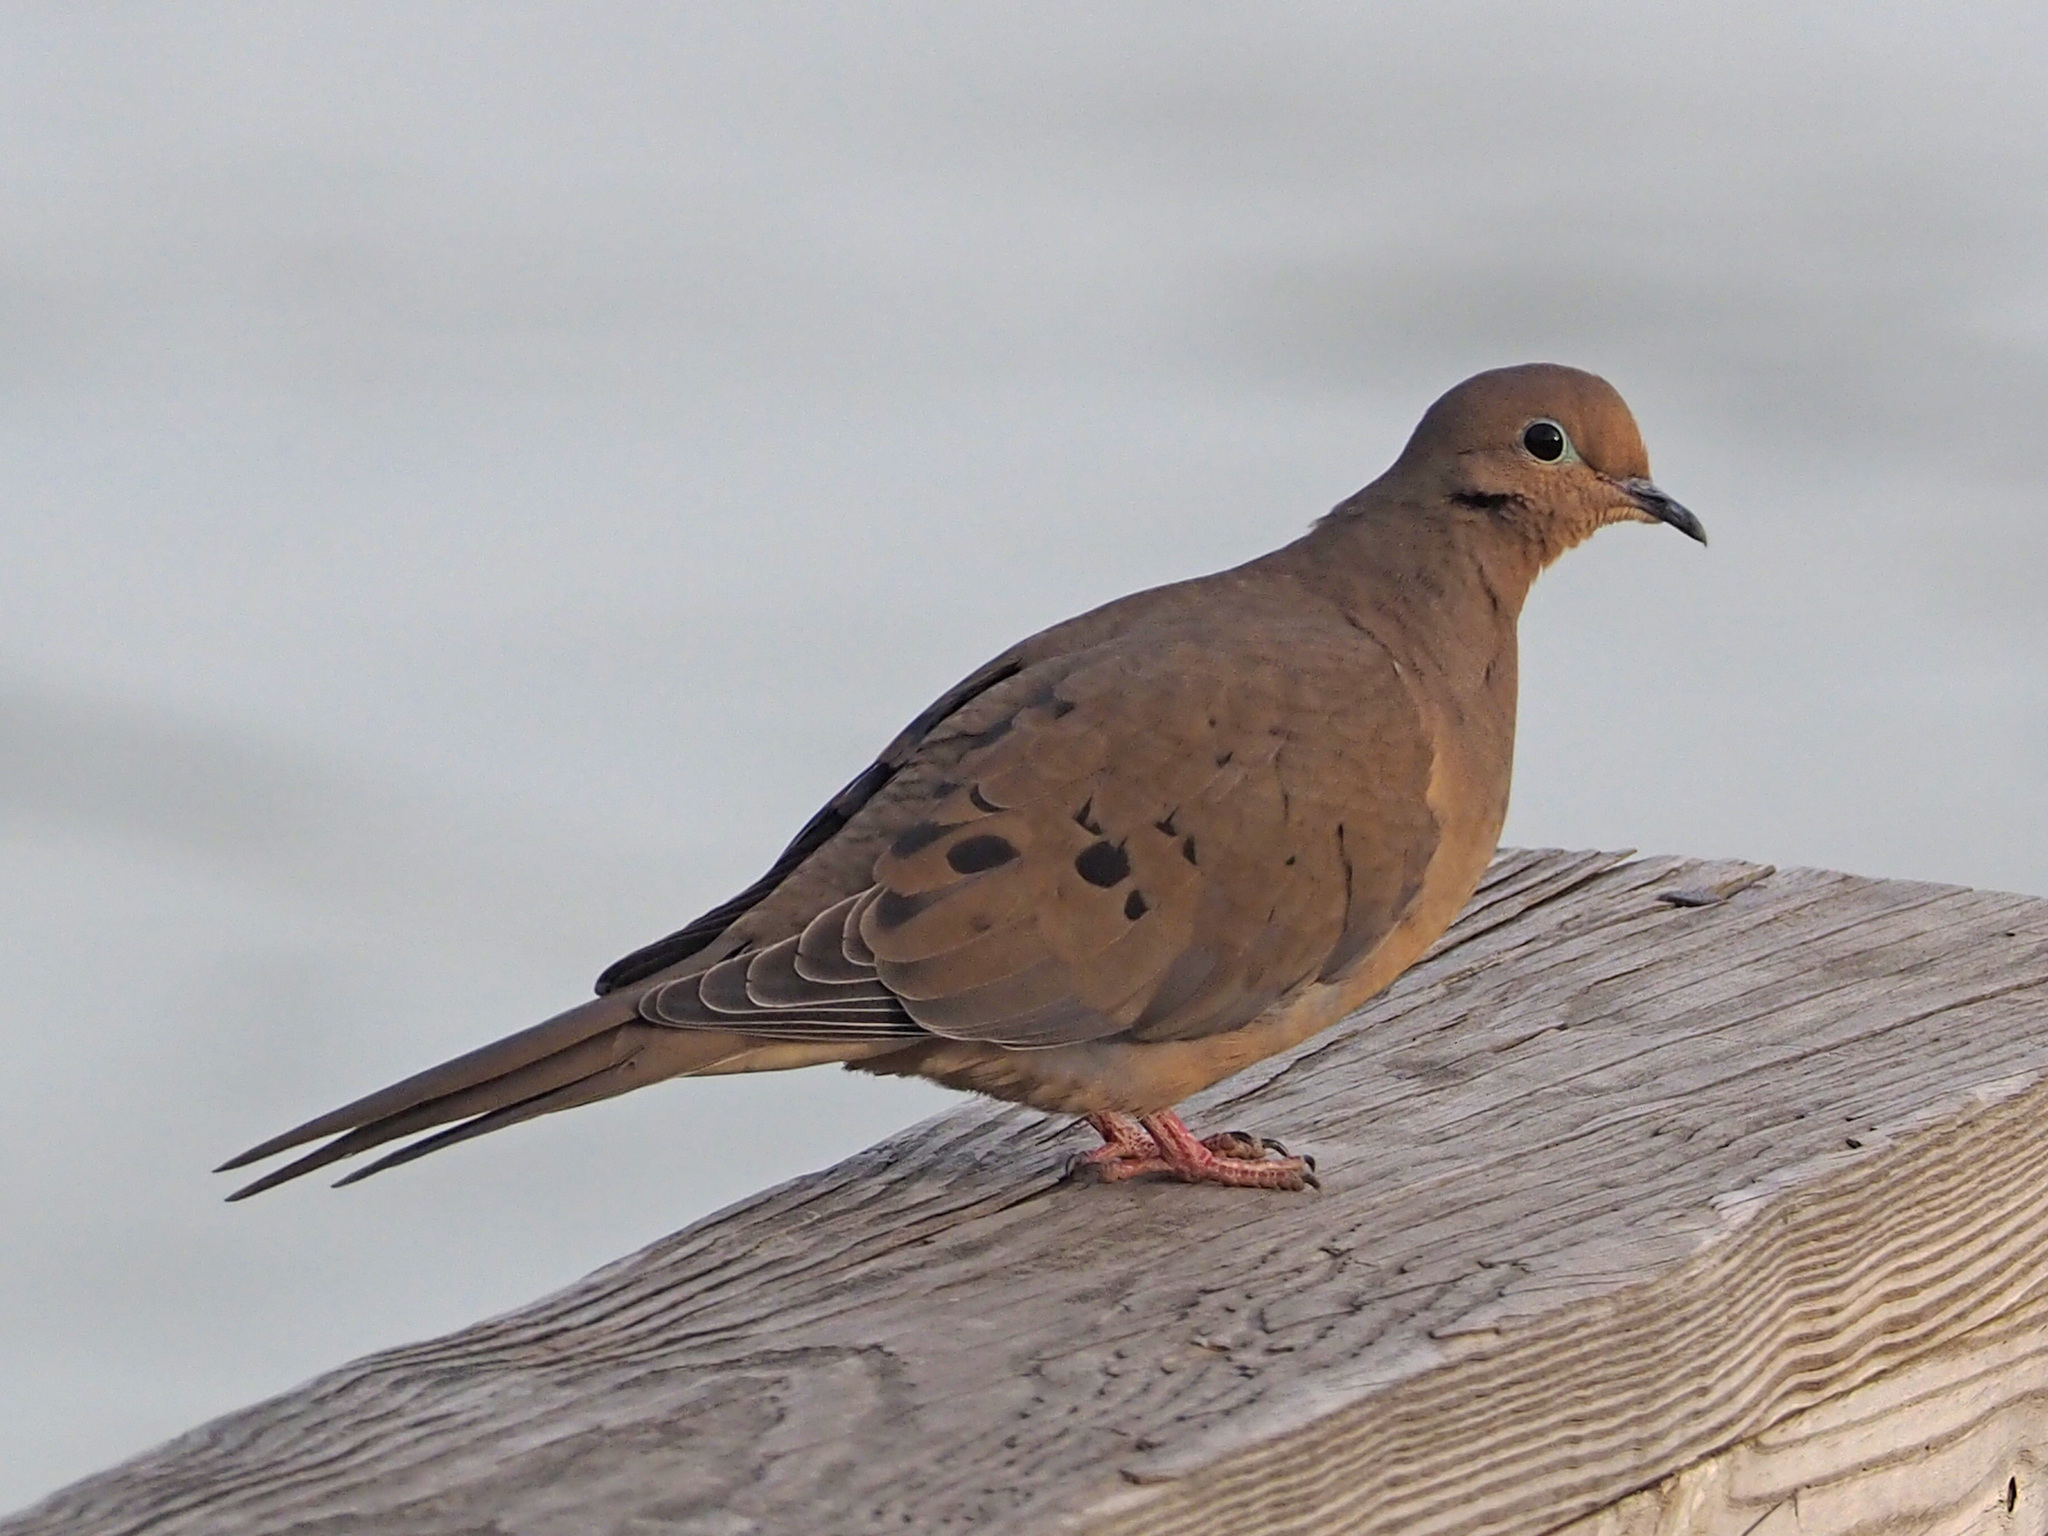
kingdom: Animalia
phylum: Chordata
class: Aves
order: Columbiformes
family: Columbidae
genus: Zenaida
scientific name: Zenaida macroura
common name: Mourning dove
